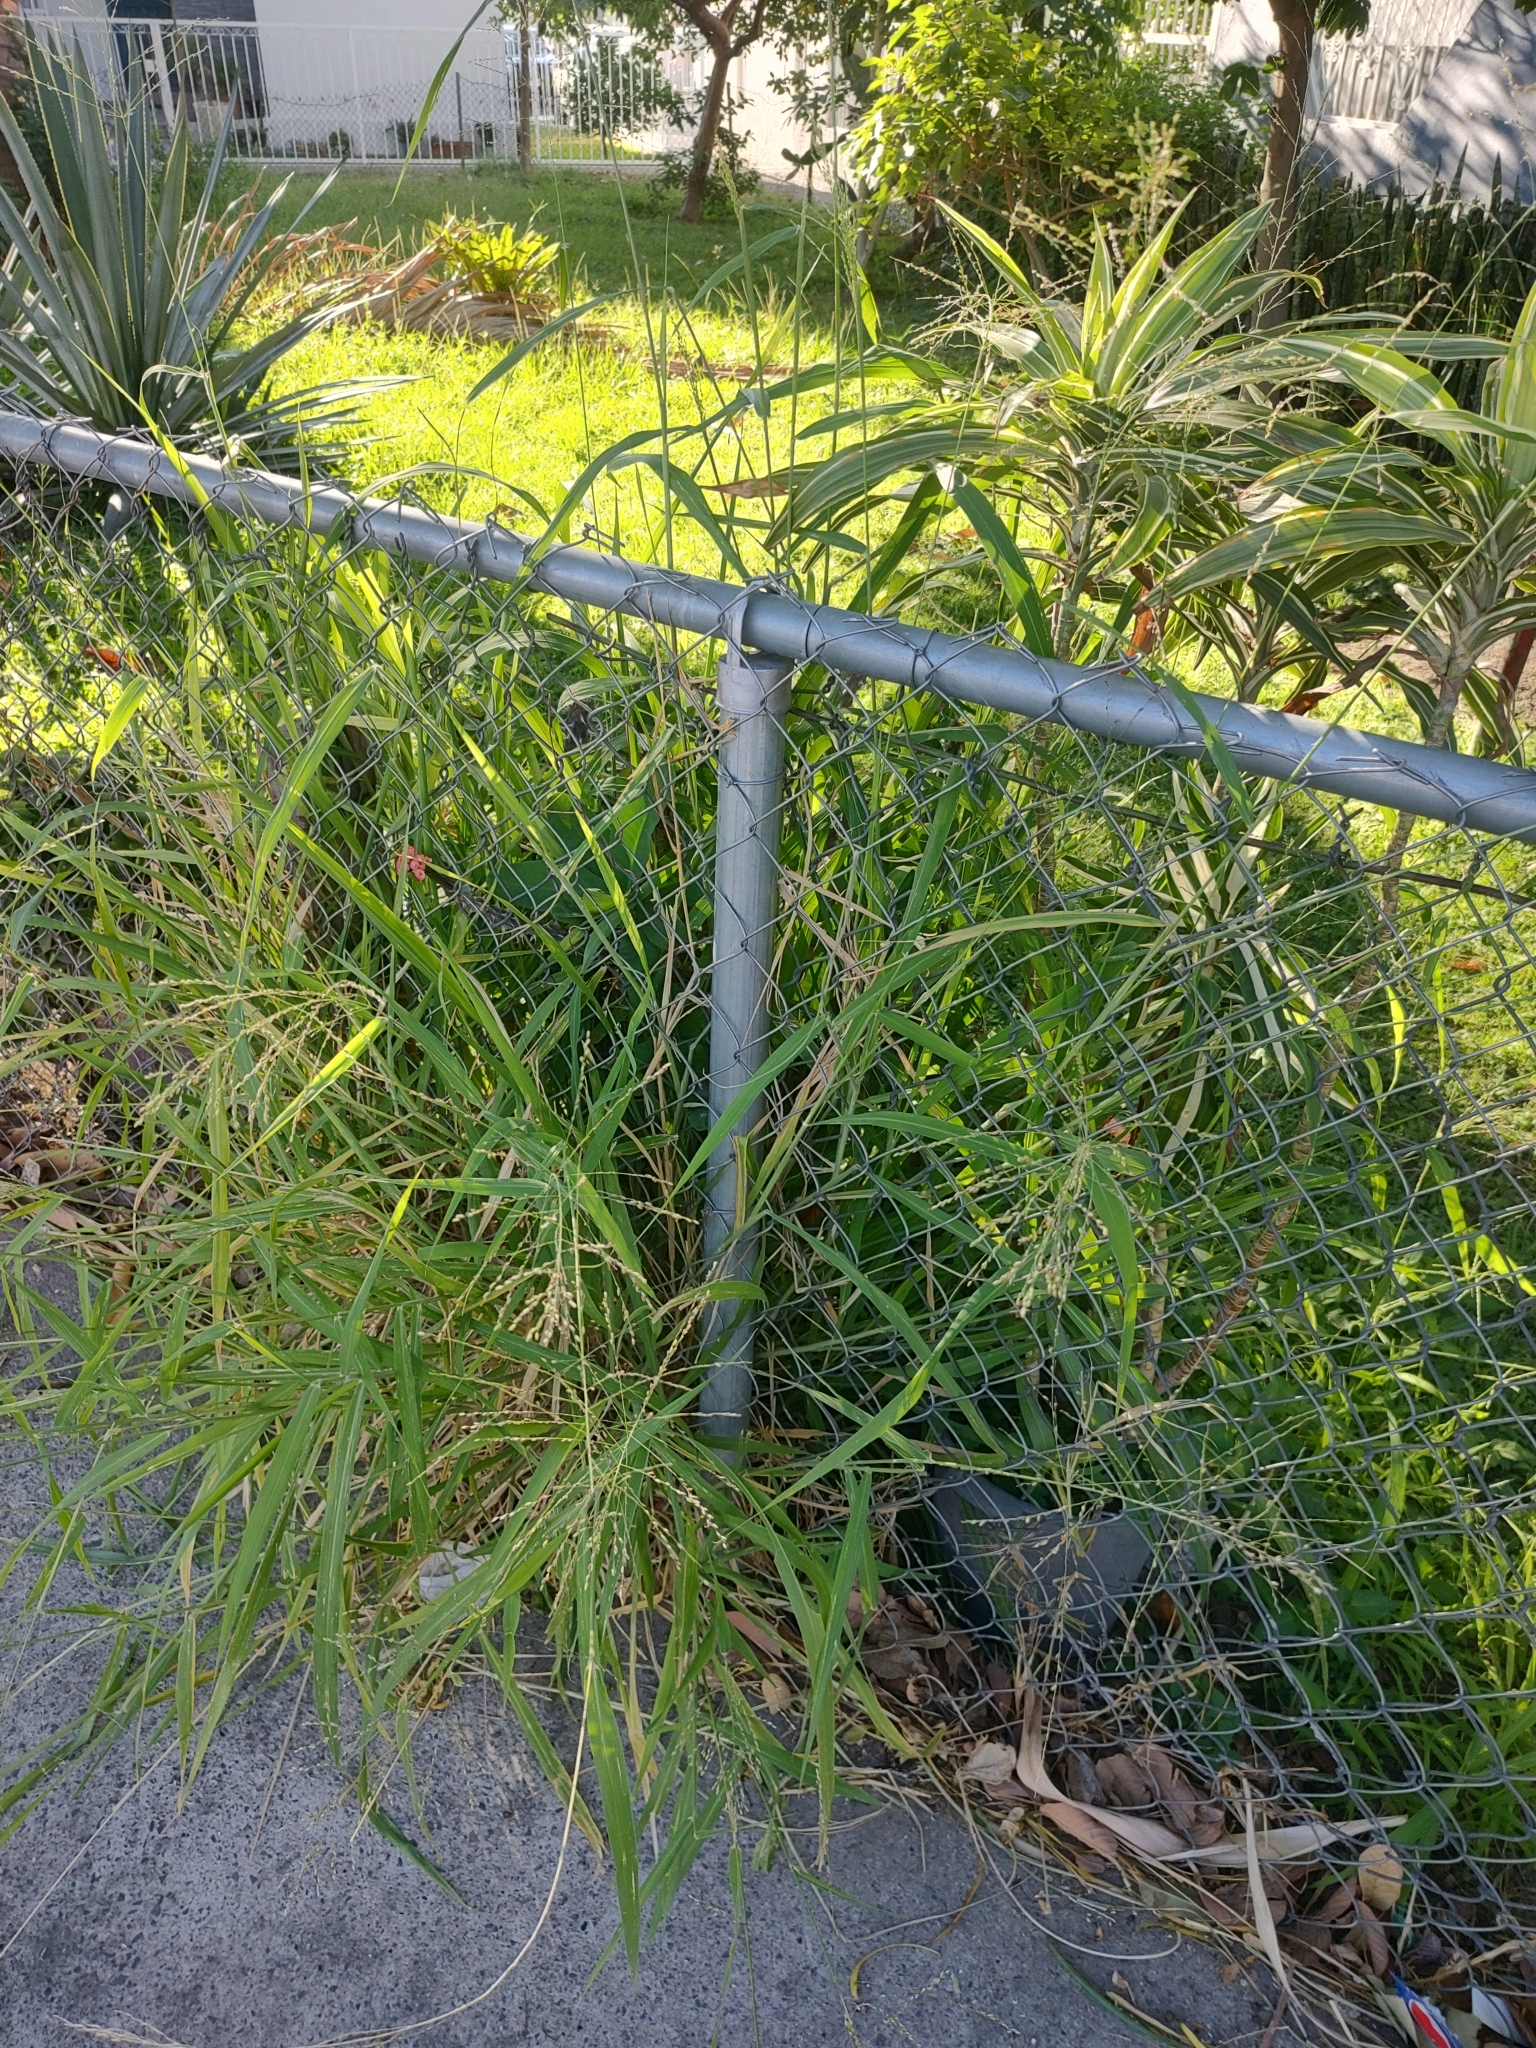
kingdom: Plantae
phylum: Tracheophyta
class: Liliopsida
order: Poales
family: Poaceae
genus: Megathyrsus
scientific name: Megathyrsus maximus
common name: Guineagrass
